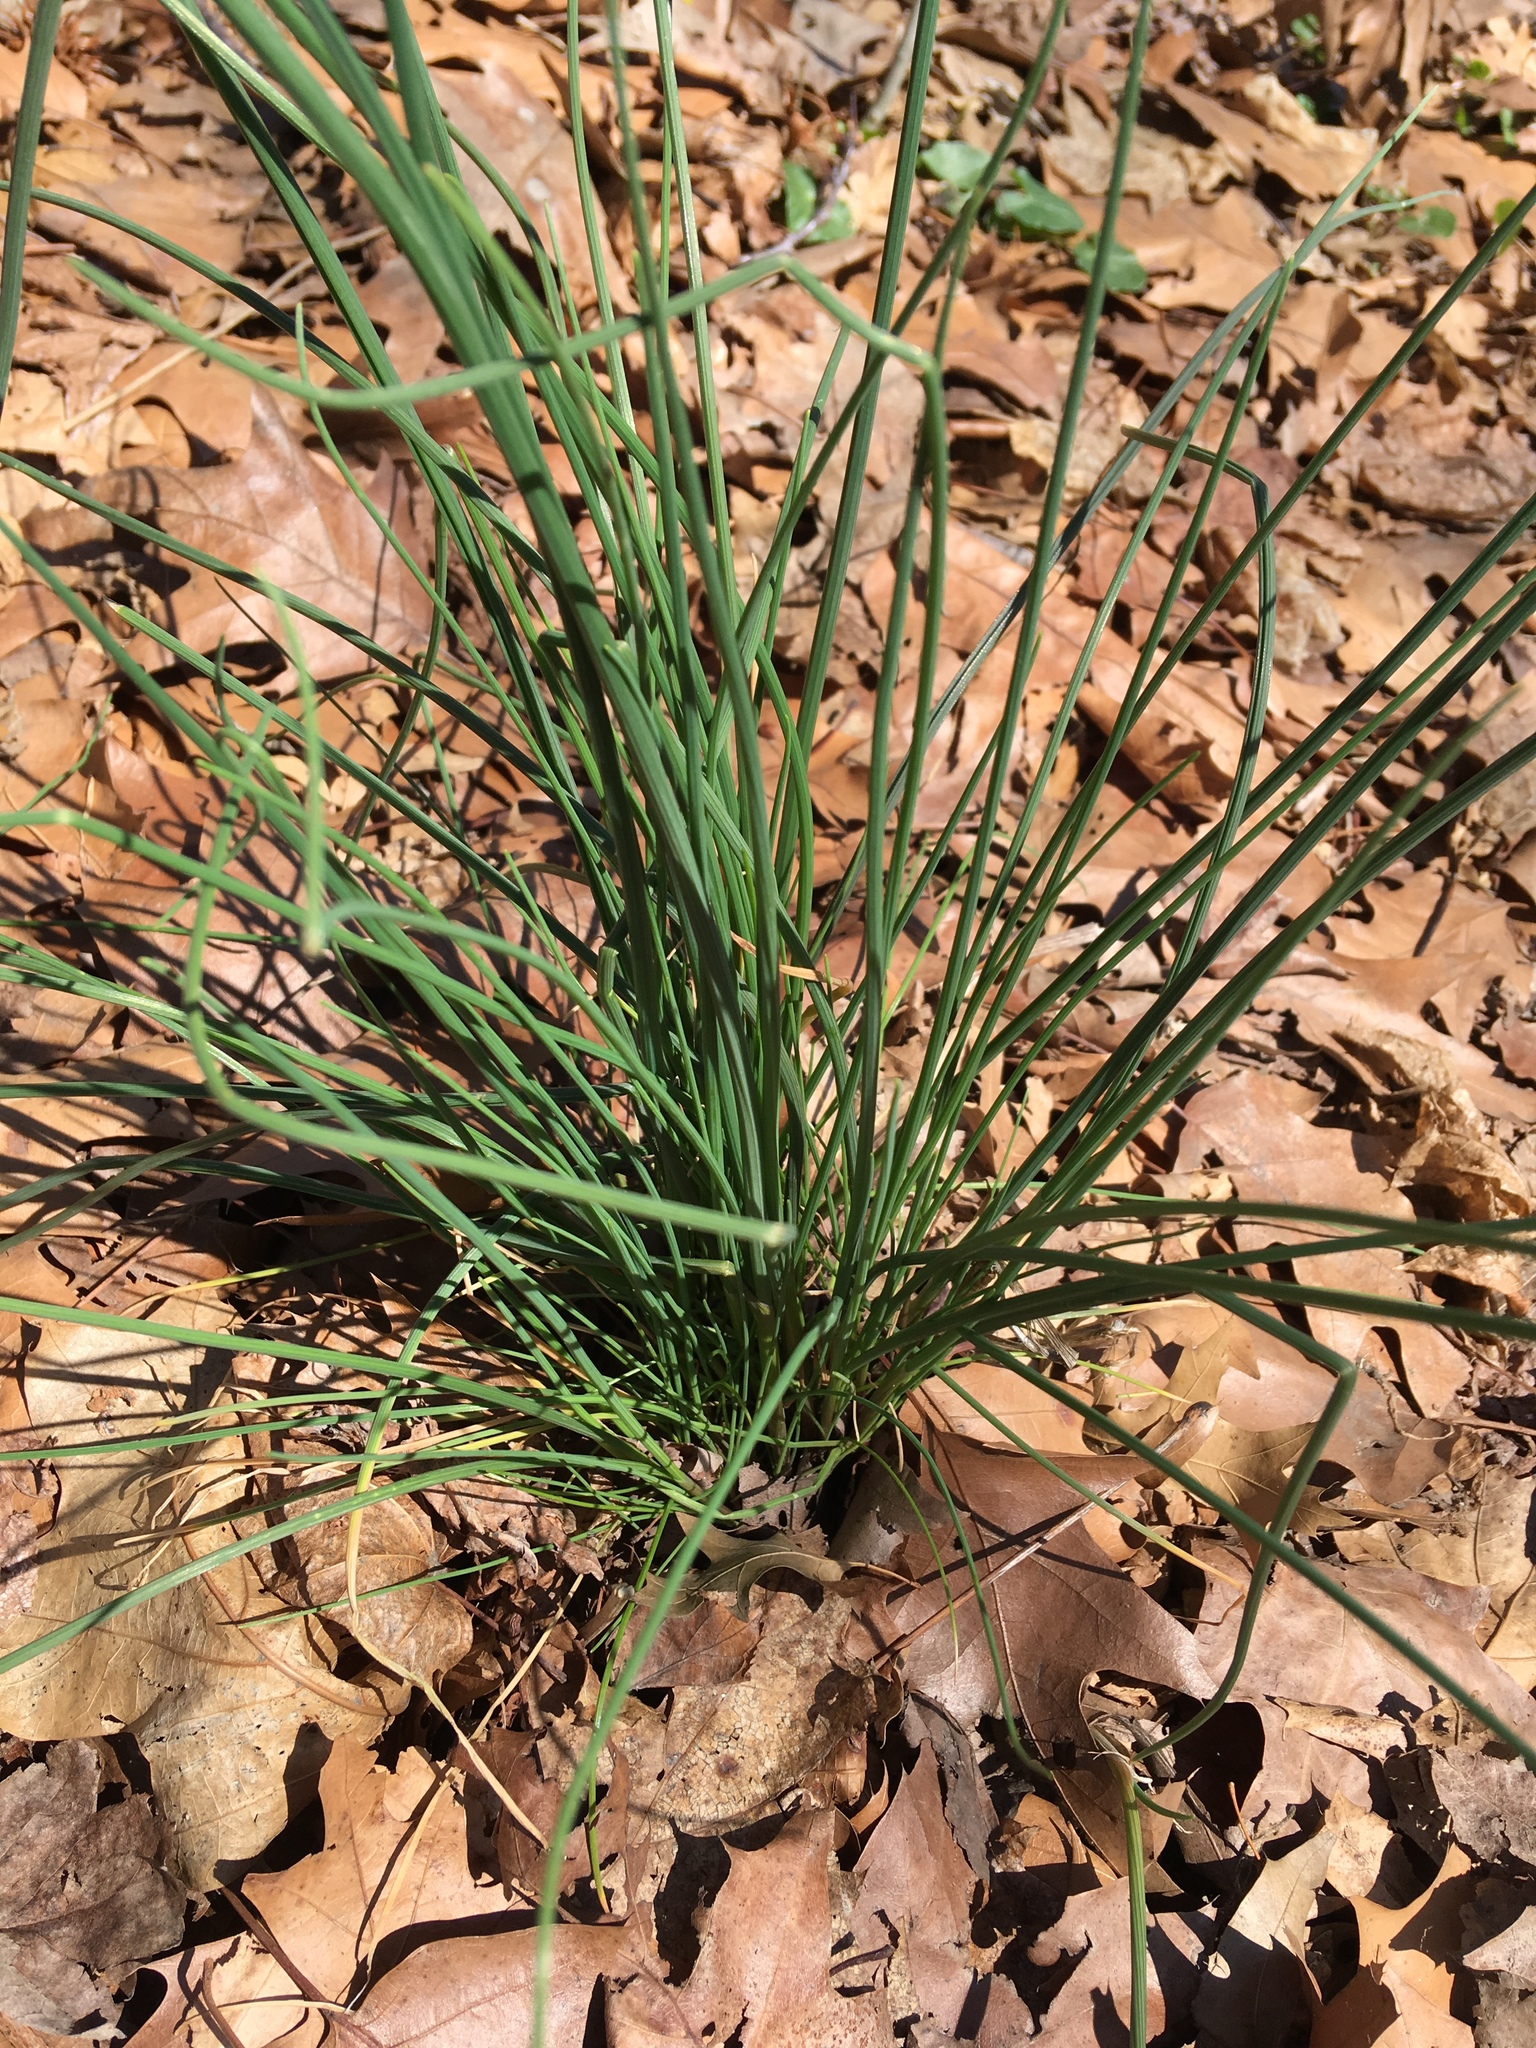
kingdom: Plantae
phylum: Tracheophyta
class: Liliopsida
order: Asparagales
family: Amaryllidaceae
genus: Allium
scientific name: Allium vineale
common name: Crow garlic
